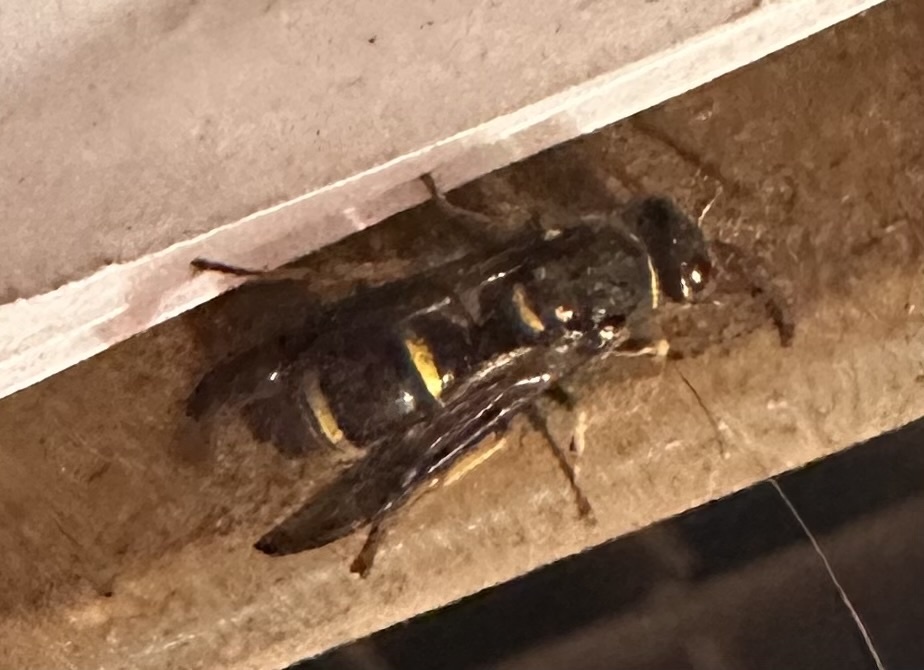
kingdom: Animalia
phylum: Arthropoda
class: Insecta
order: Hymenoptera
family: Vespidae
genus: Ancistrocerus
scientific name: Ancistrocerus campestris
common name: Smiling mason wasp
